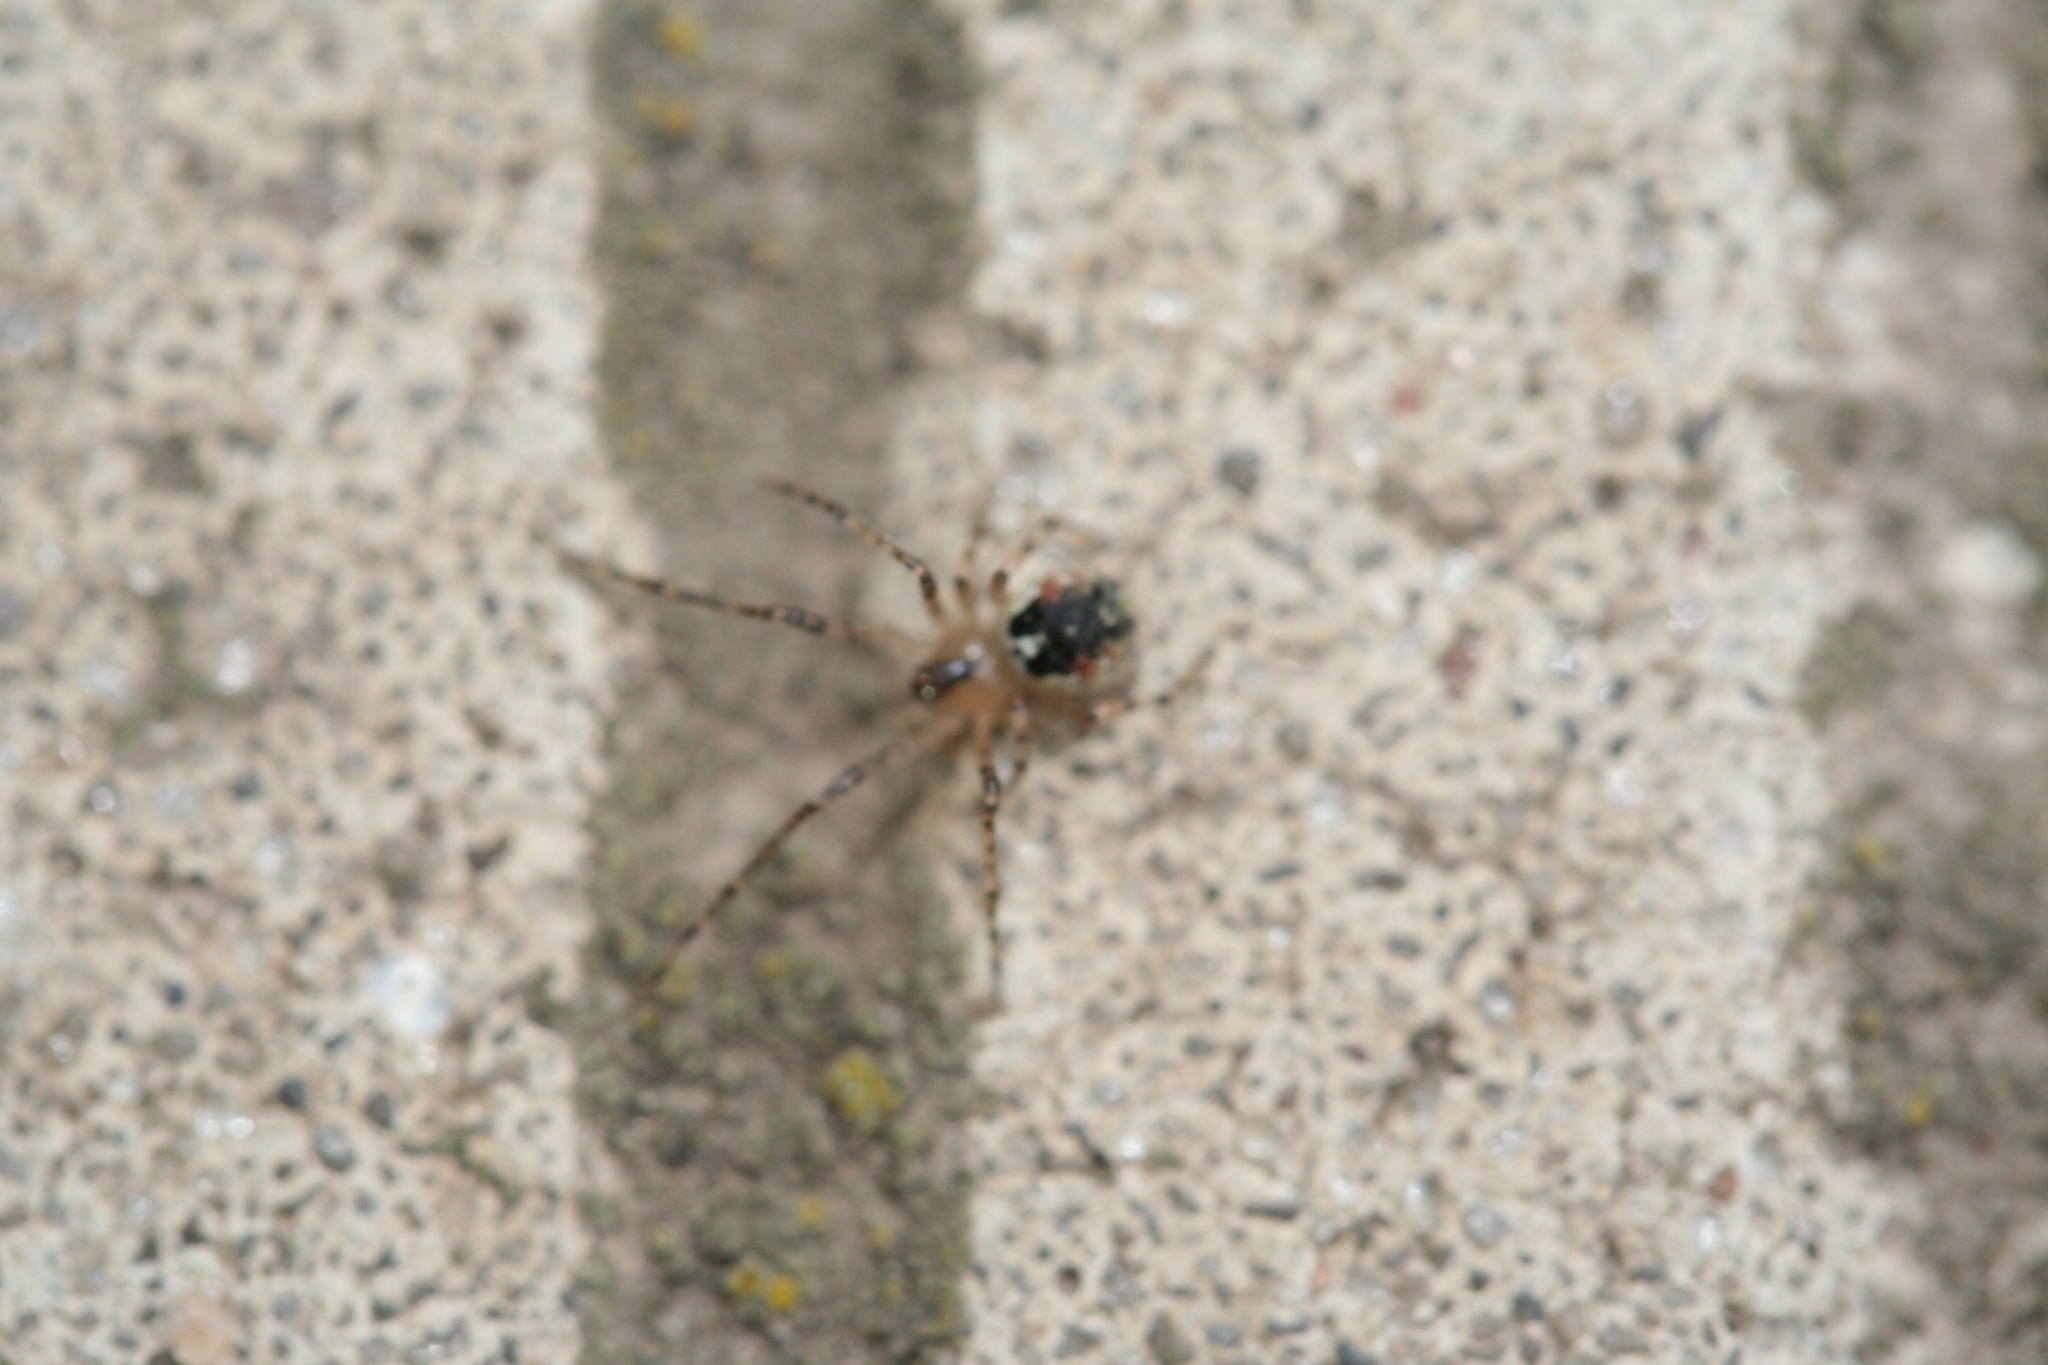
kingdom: Animalia
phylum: Arthropoda
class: Arachnida
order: Araneae
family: Theridiidae
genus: Platnickina
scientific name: Platnickina tincta
